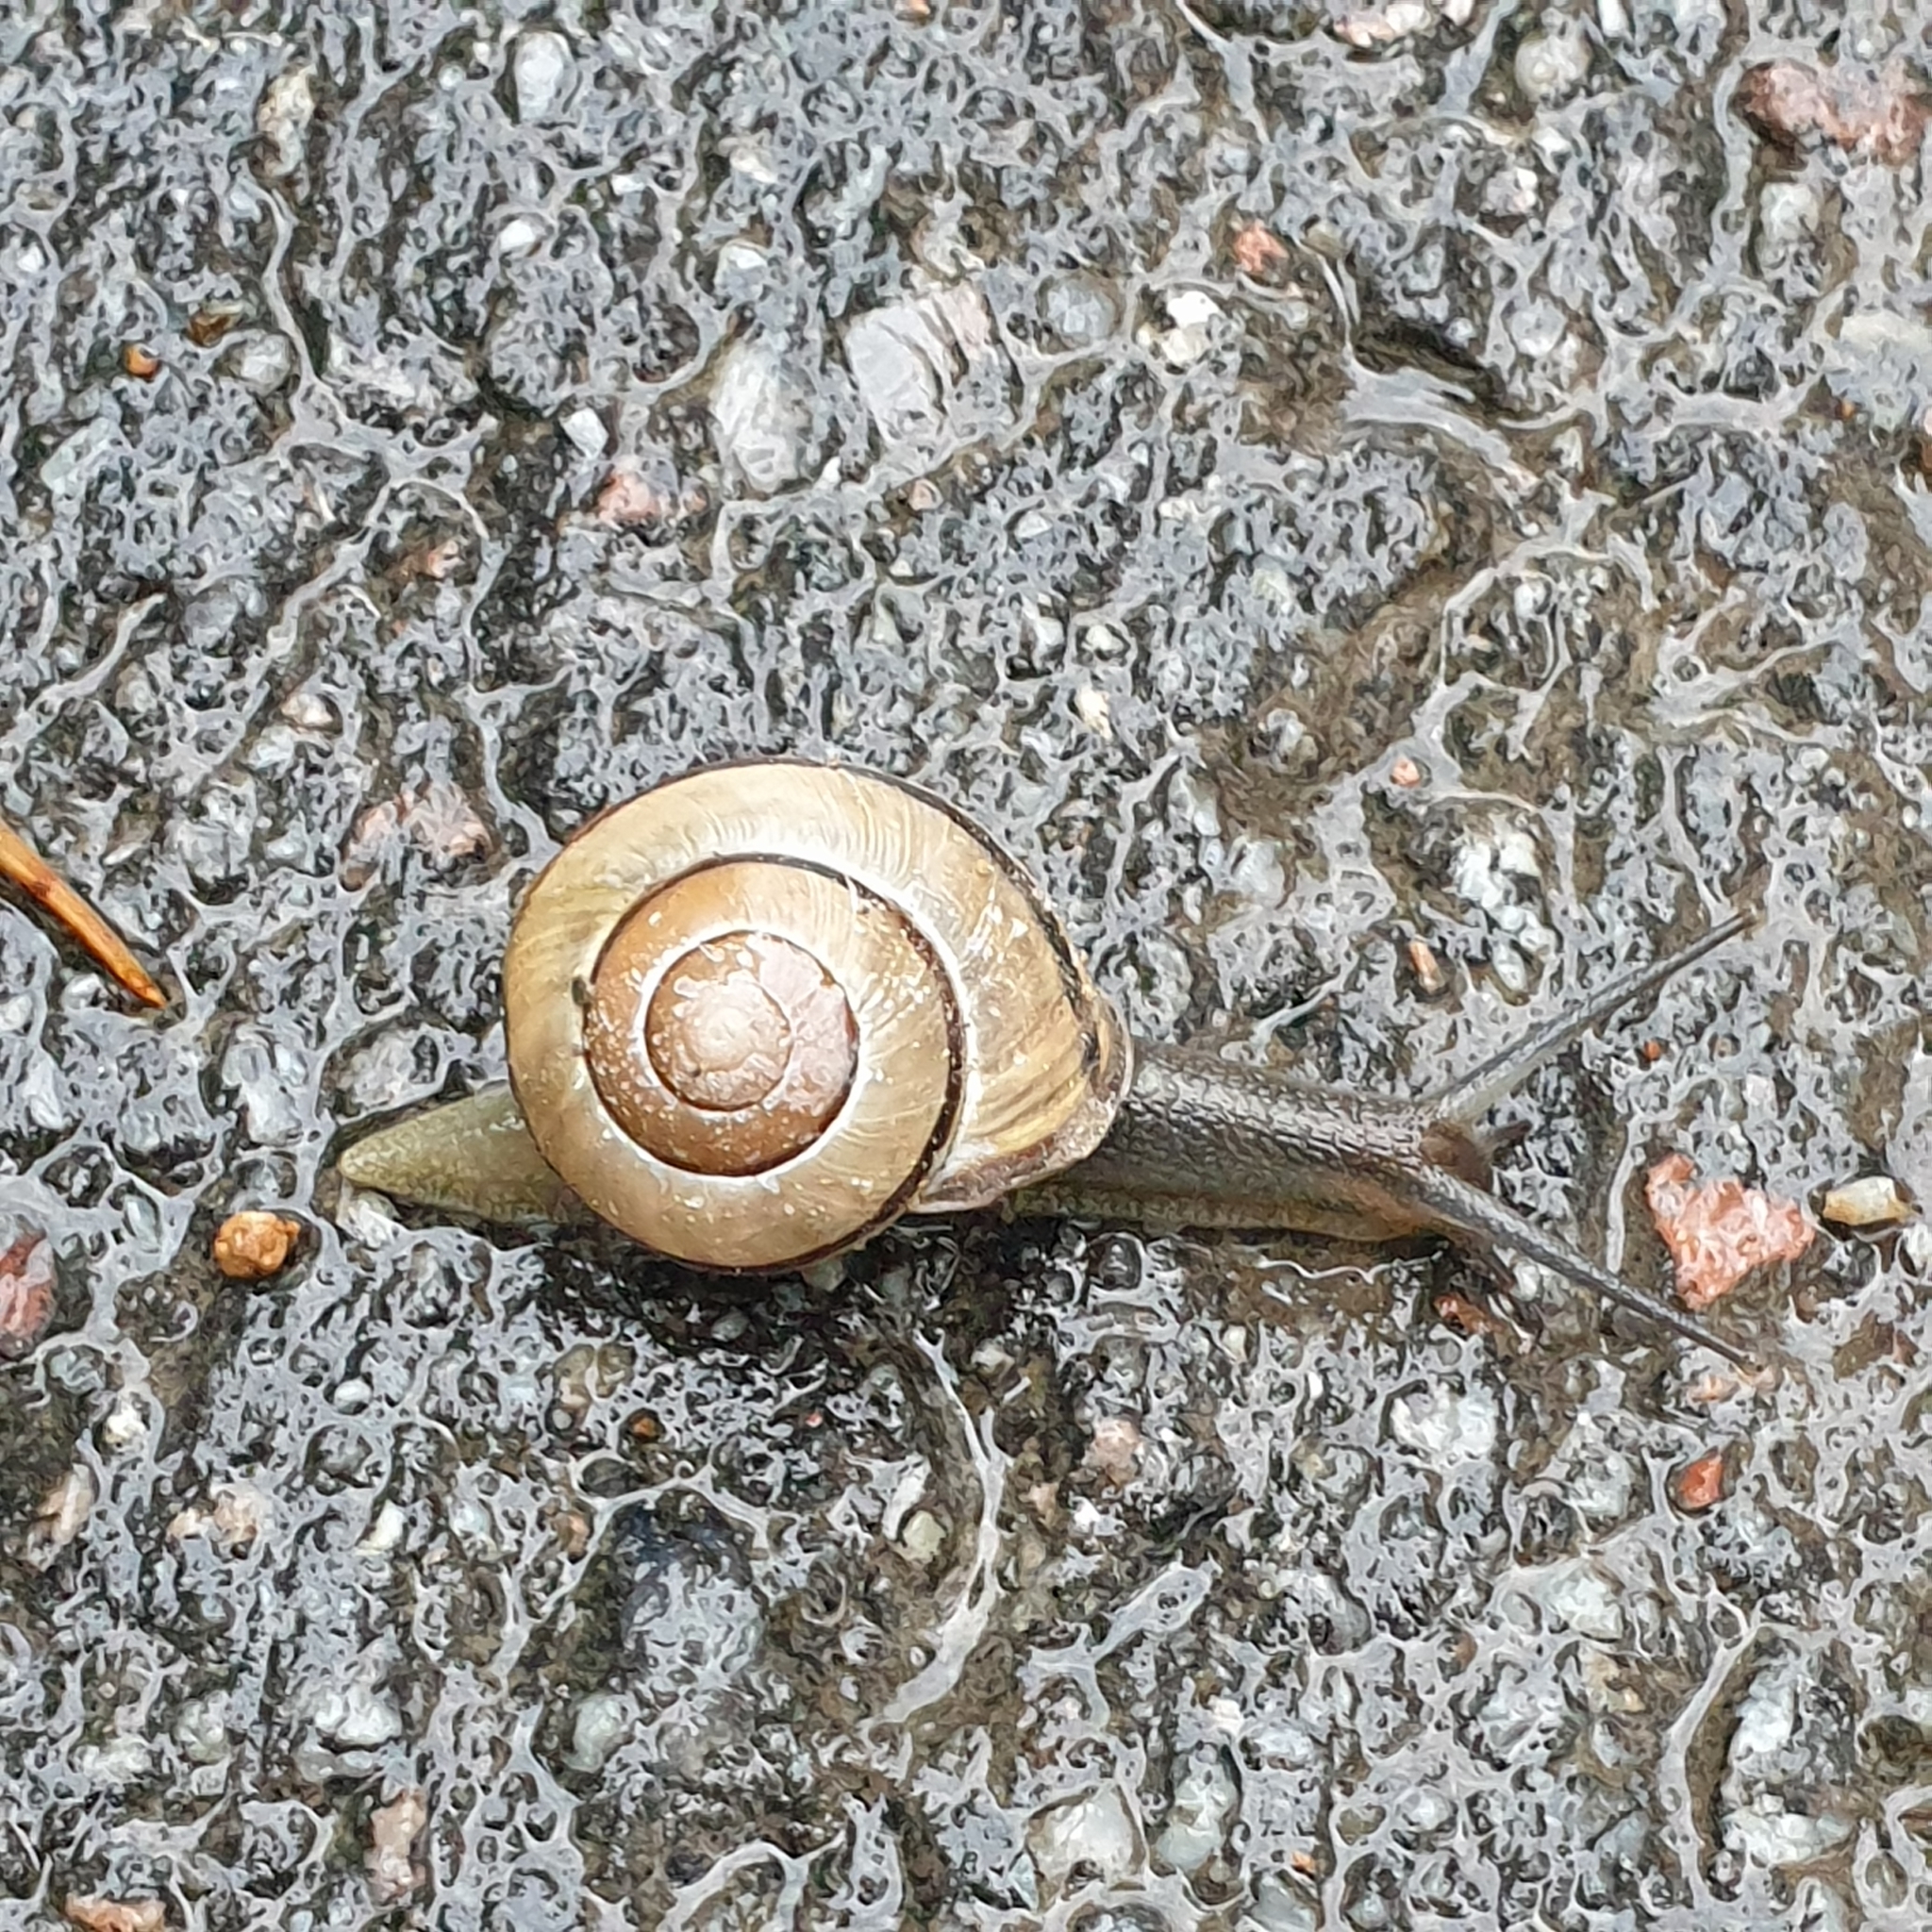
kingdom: Animalia
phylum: Mollusca
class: Gastropoda
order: Stylommatophora
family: Helicidae
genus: Cepaea
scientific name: Cepaea nemoralis
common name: Grovesnail
